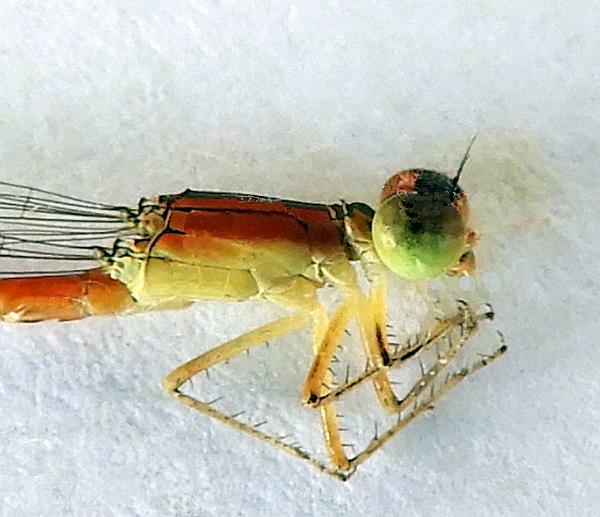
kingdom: Animalia
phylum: Arthropoda
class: Insecta
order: Odonata
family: Coenagrionidae
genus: Ischnura
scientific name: Ischnura hastata
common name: Citrine forktail
